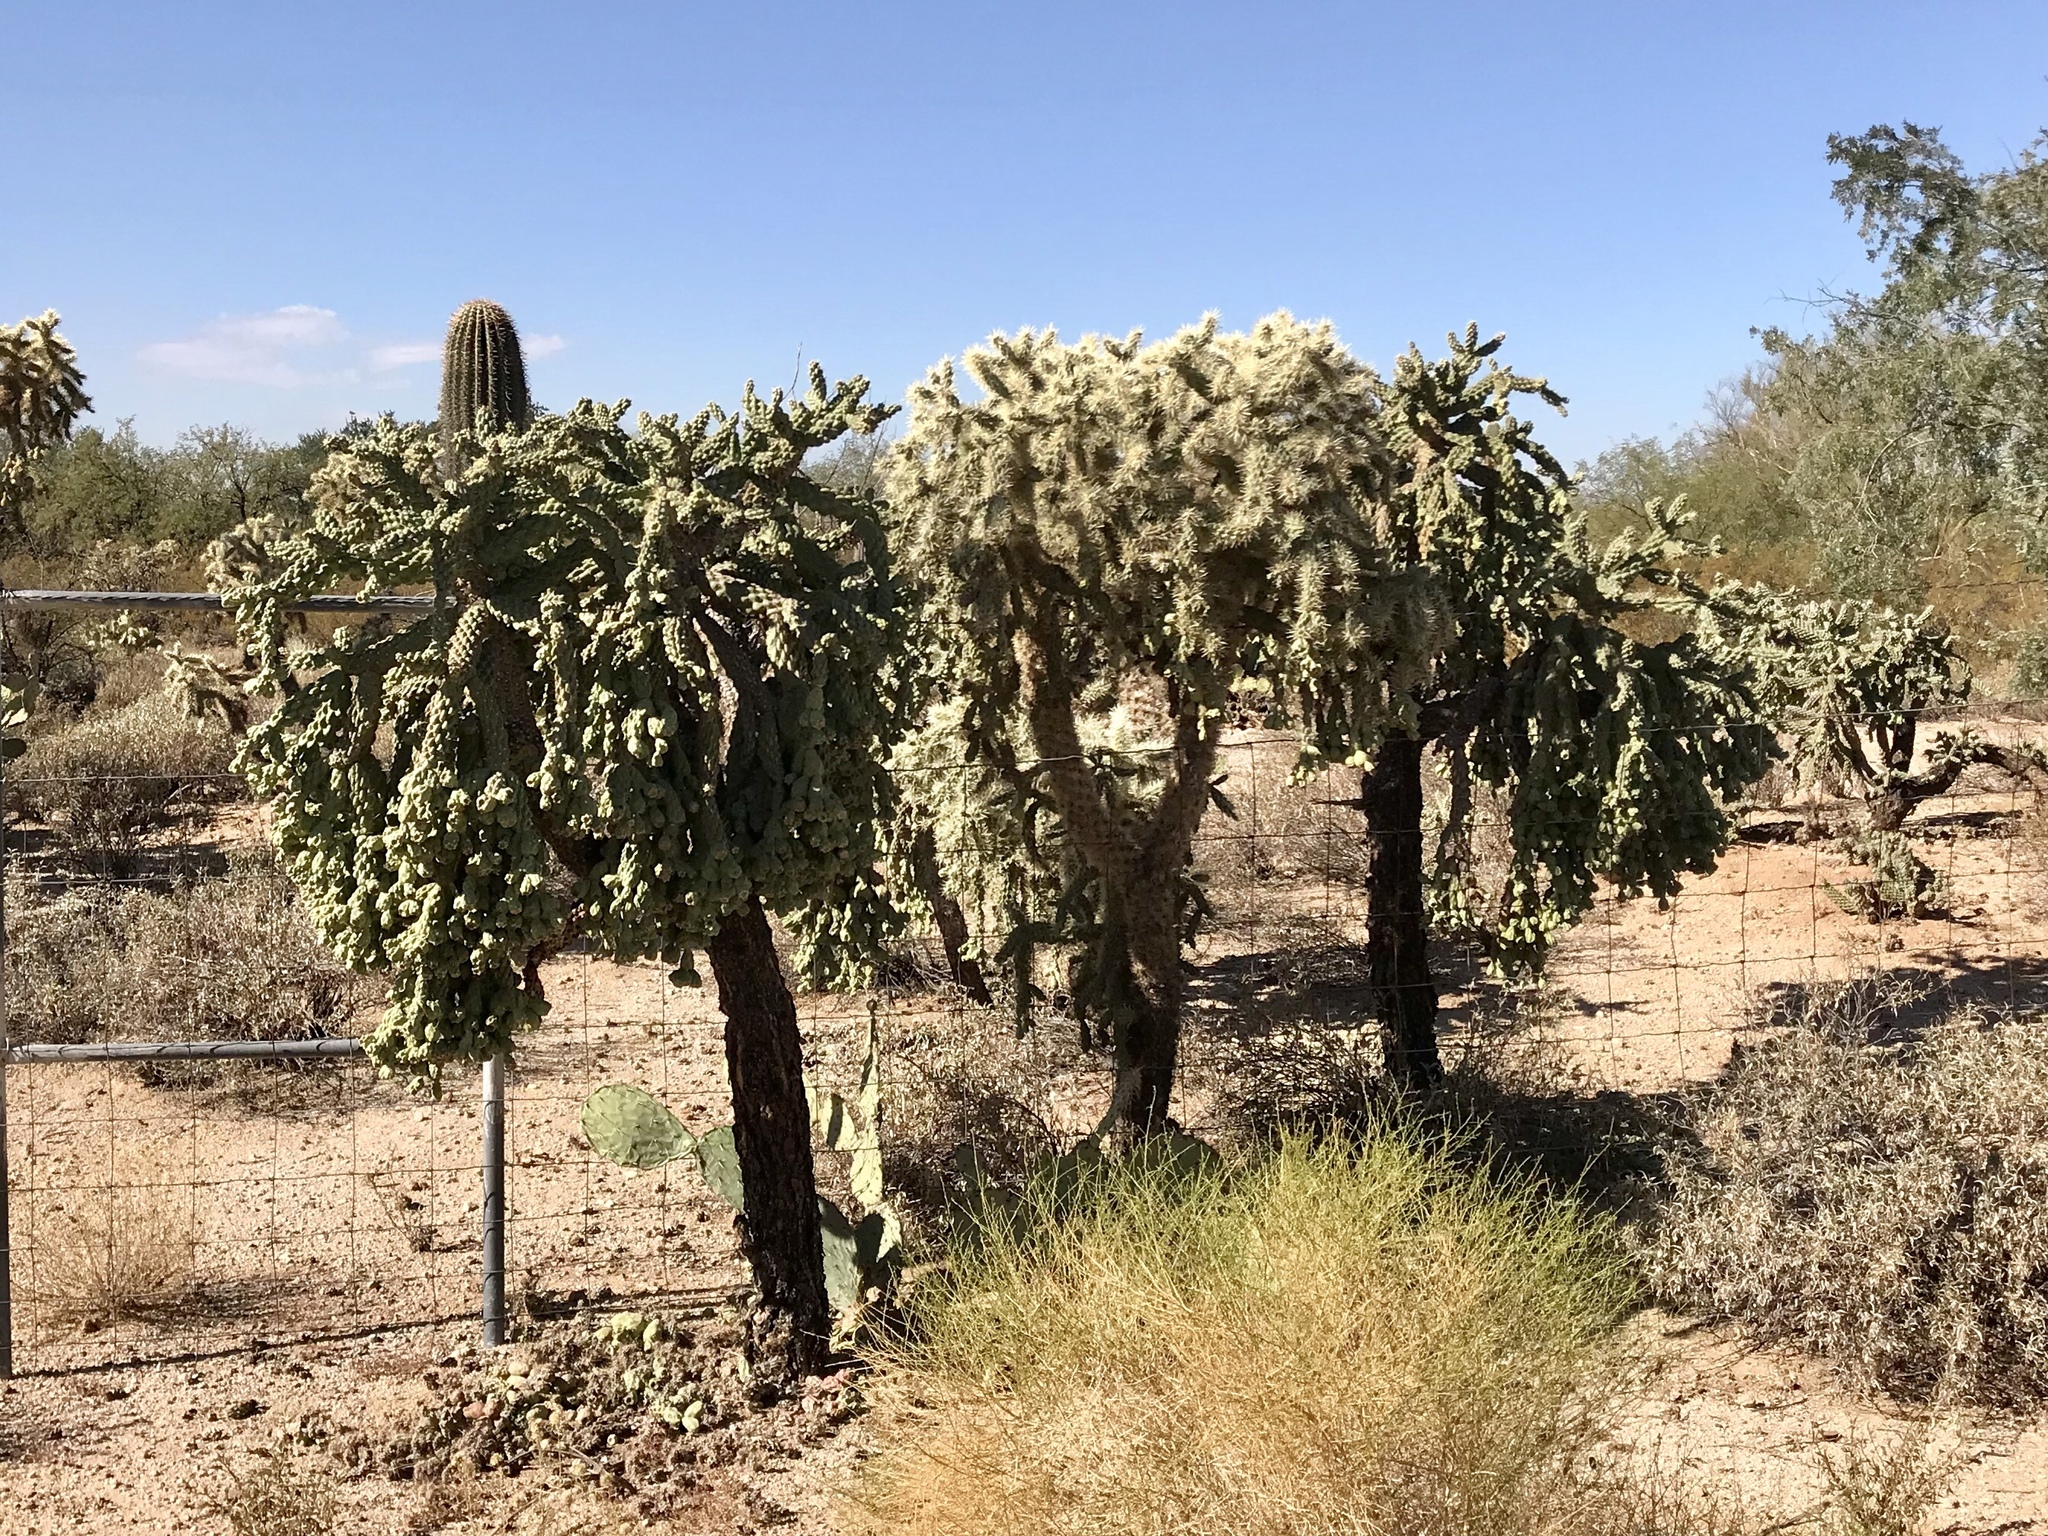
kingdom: Plantae
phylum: Tracheophyta
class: Magnoliopsida
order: Caryophyllales
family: Cactaceae
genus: Cylindropuntia
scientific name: Cylindropuntia fulgida
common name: Jumping cholla
